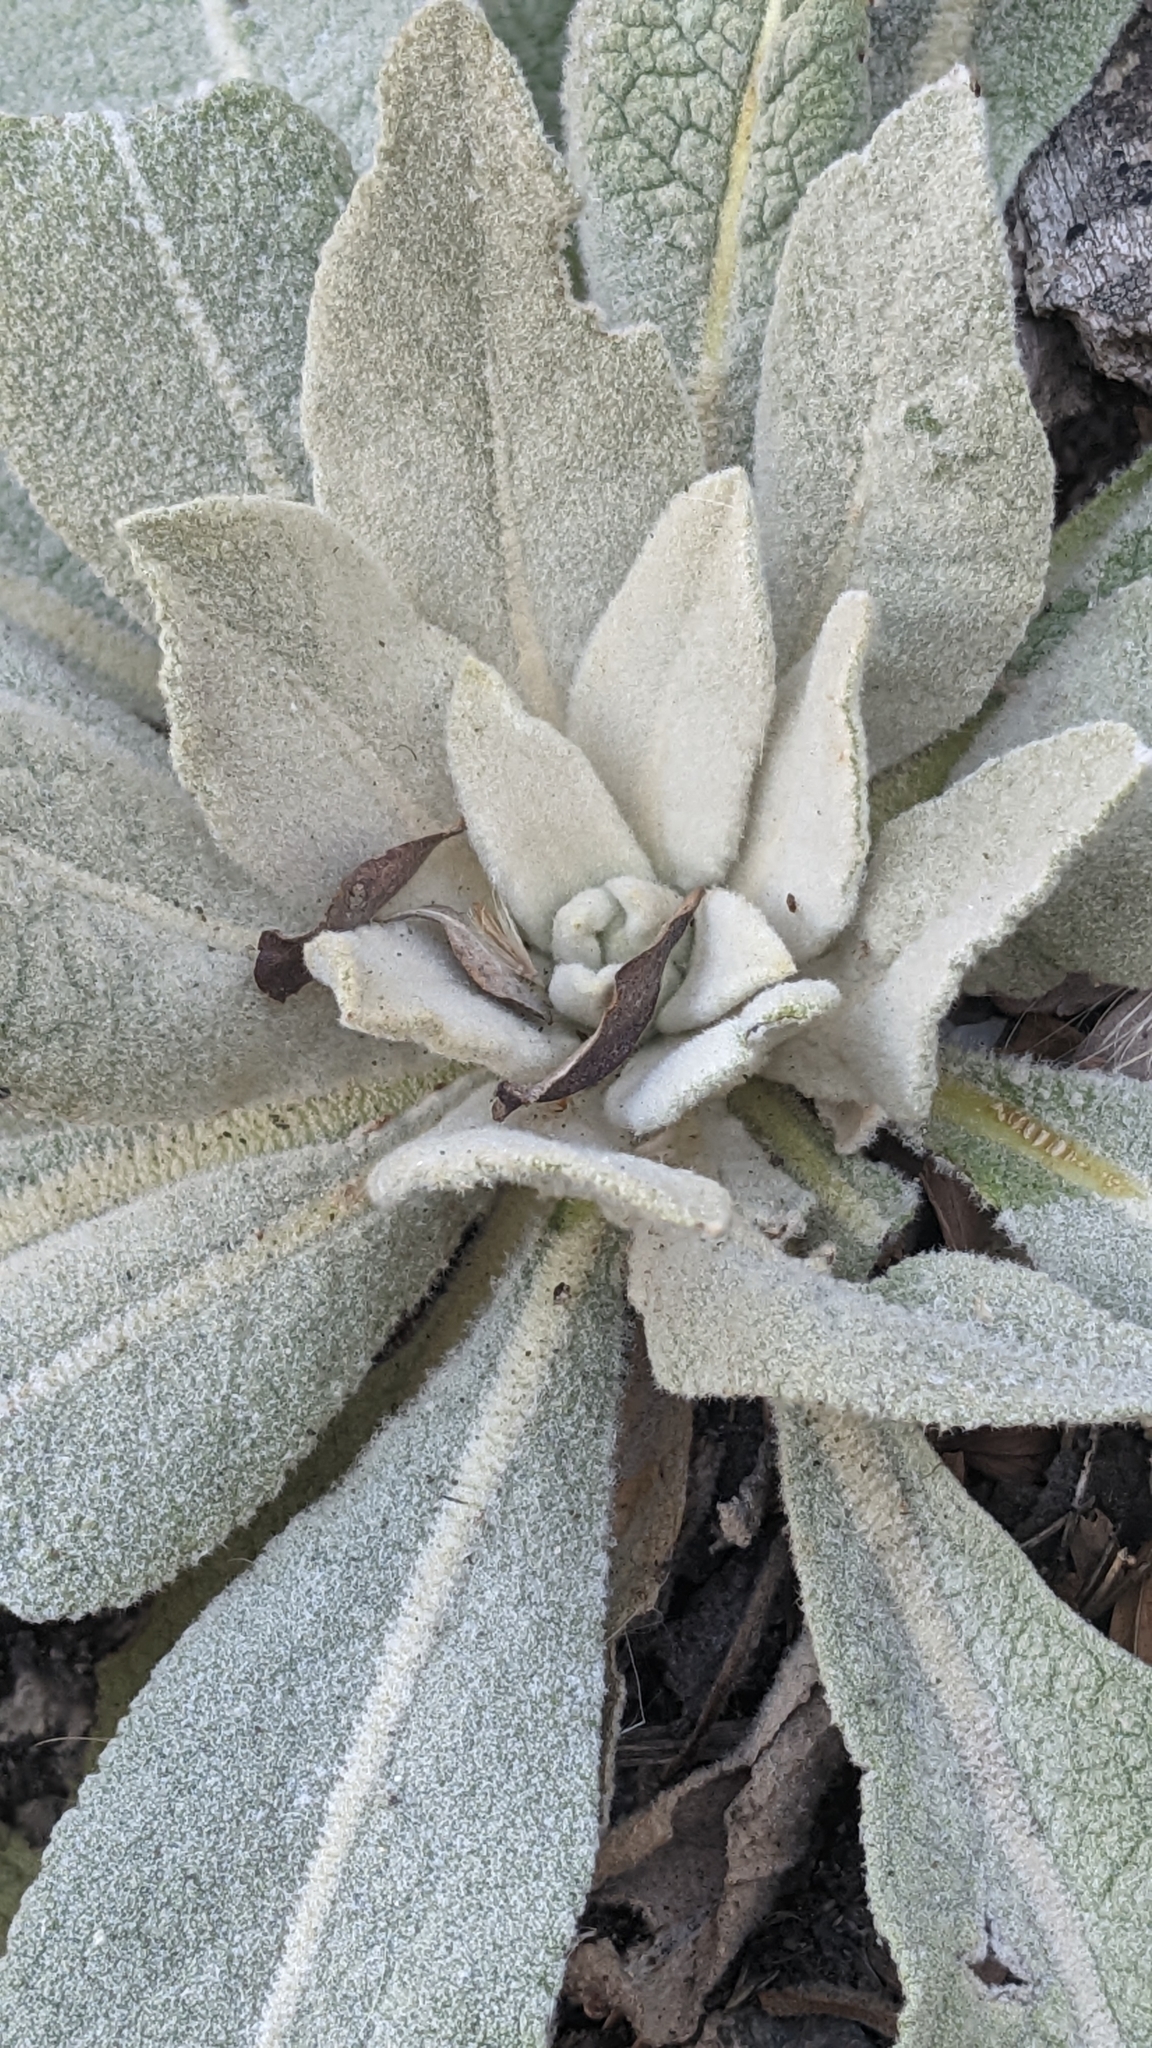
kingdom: Plantae
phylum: Tracheophyta
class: Magnoliopsida
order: Lamiales
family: Scrophulariaceae
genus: Verbascum
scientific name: Verbascum songaricum
